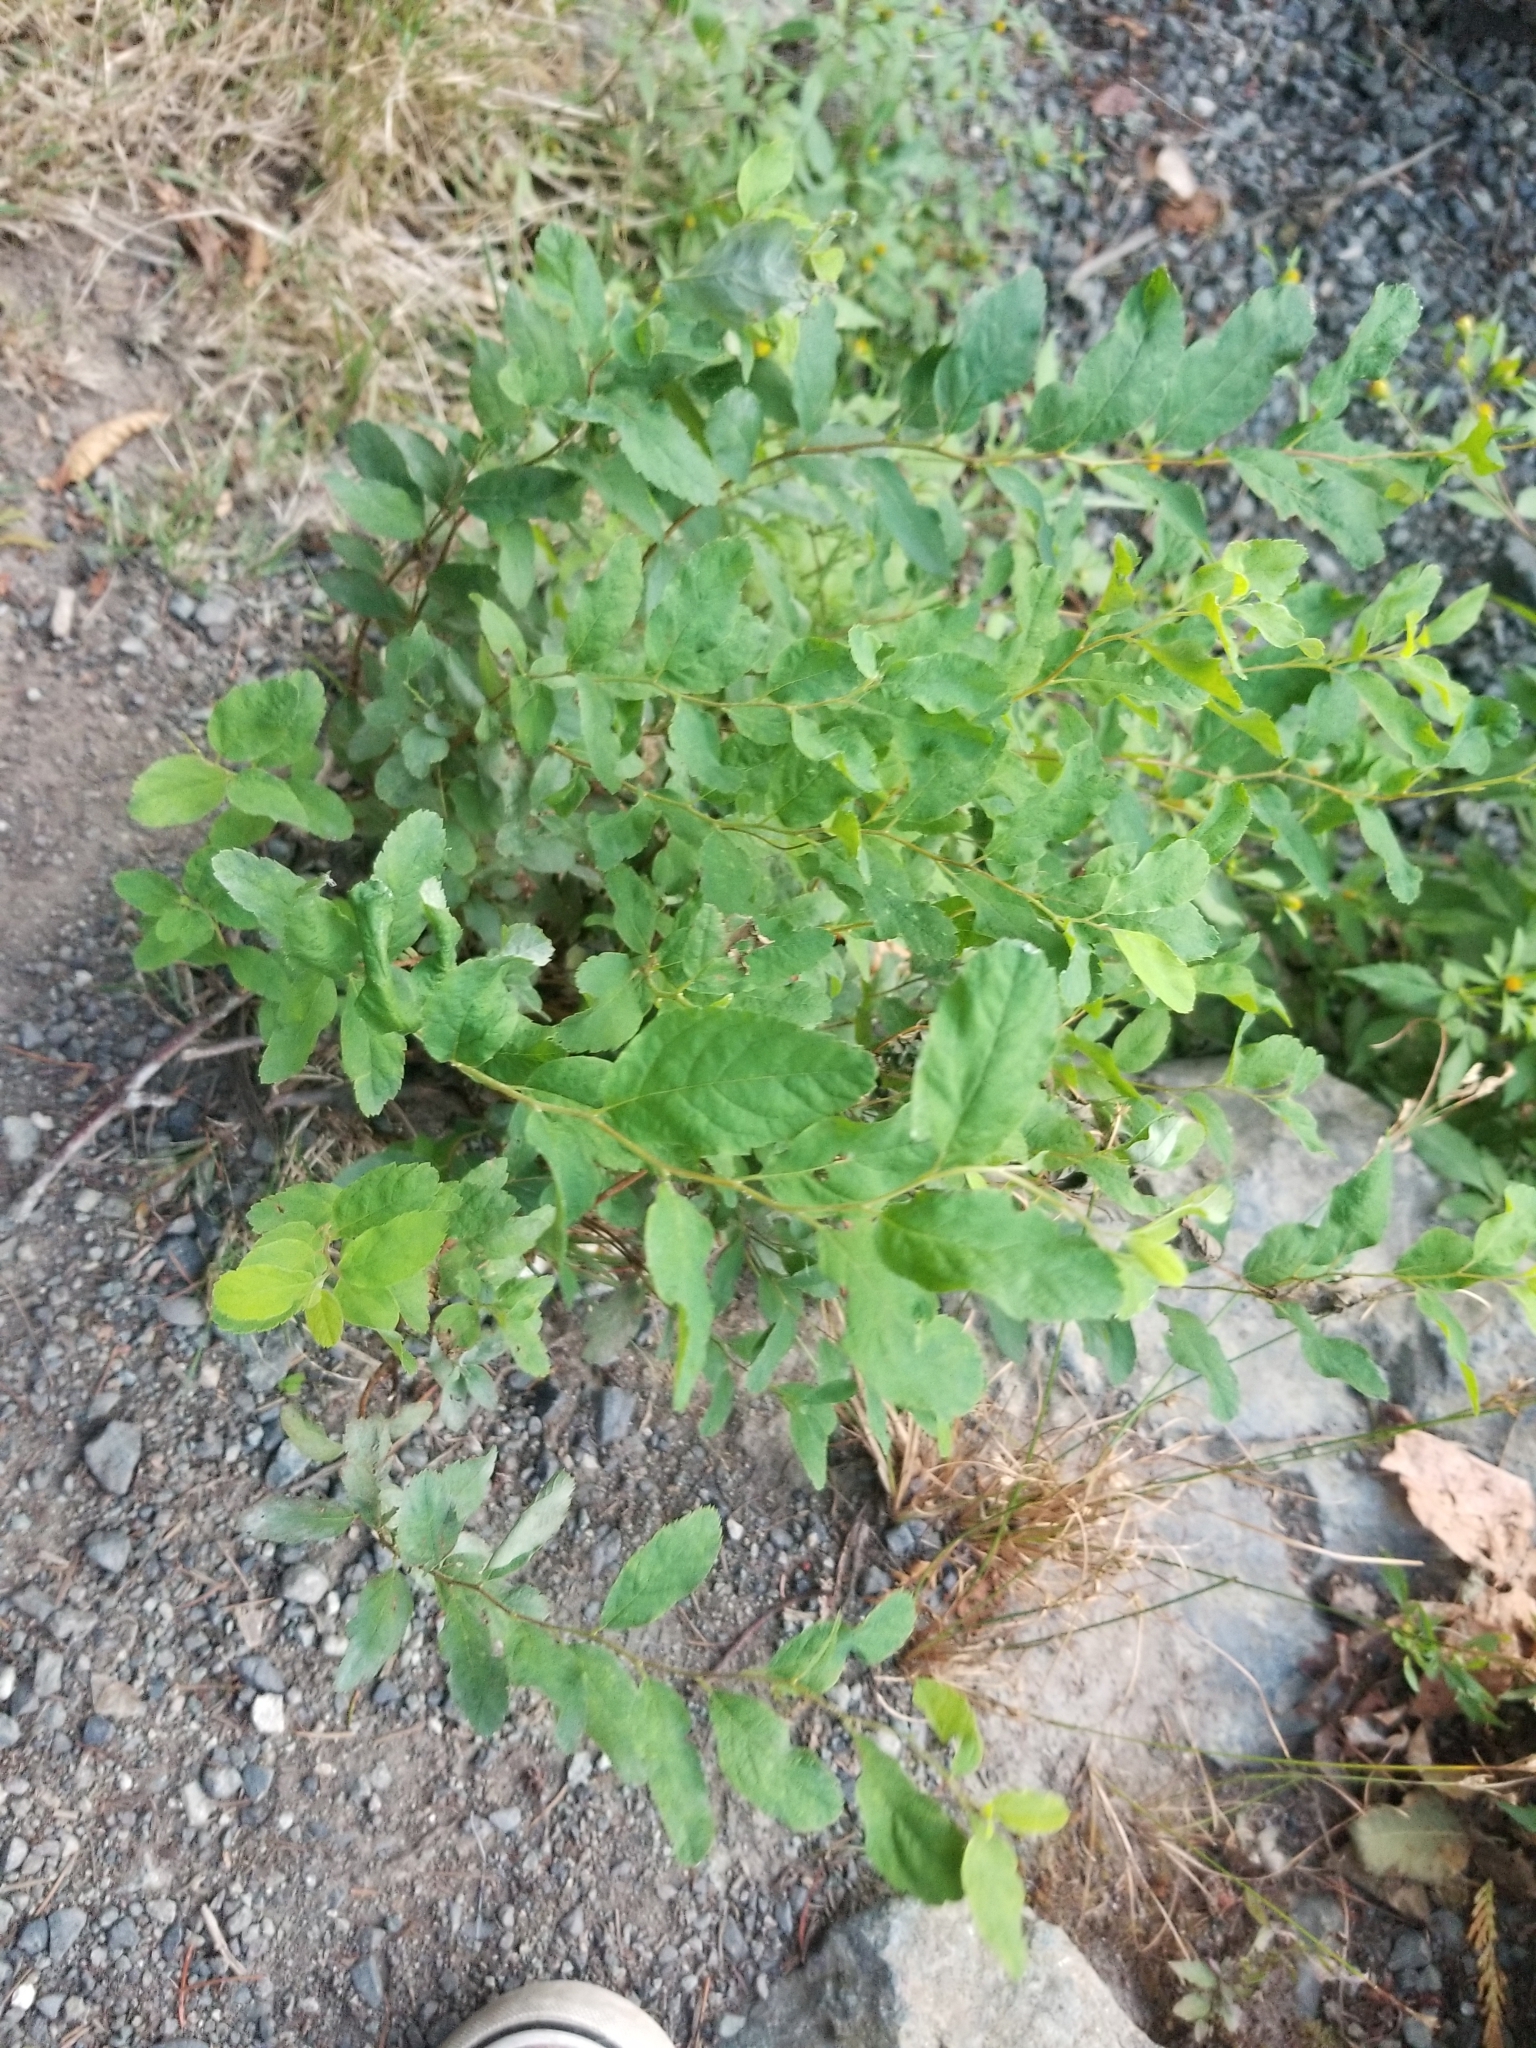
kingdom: Plantae
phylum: Tracheophyta
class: Magnoliopsida
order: Rosales
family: Rosaceae
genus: Spiraea
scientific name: Spiraea douglasii
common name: Steeplebush
